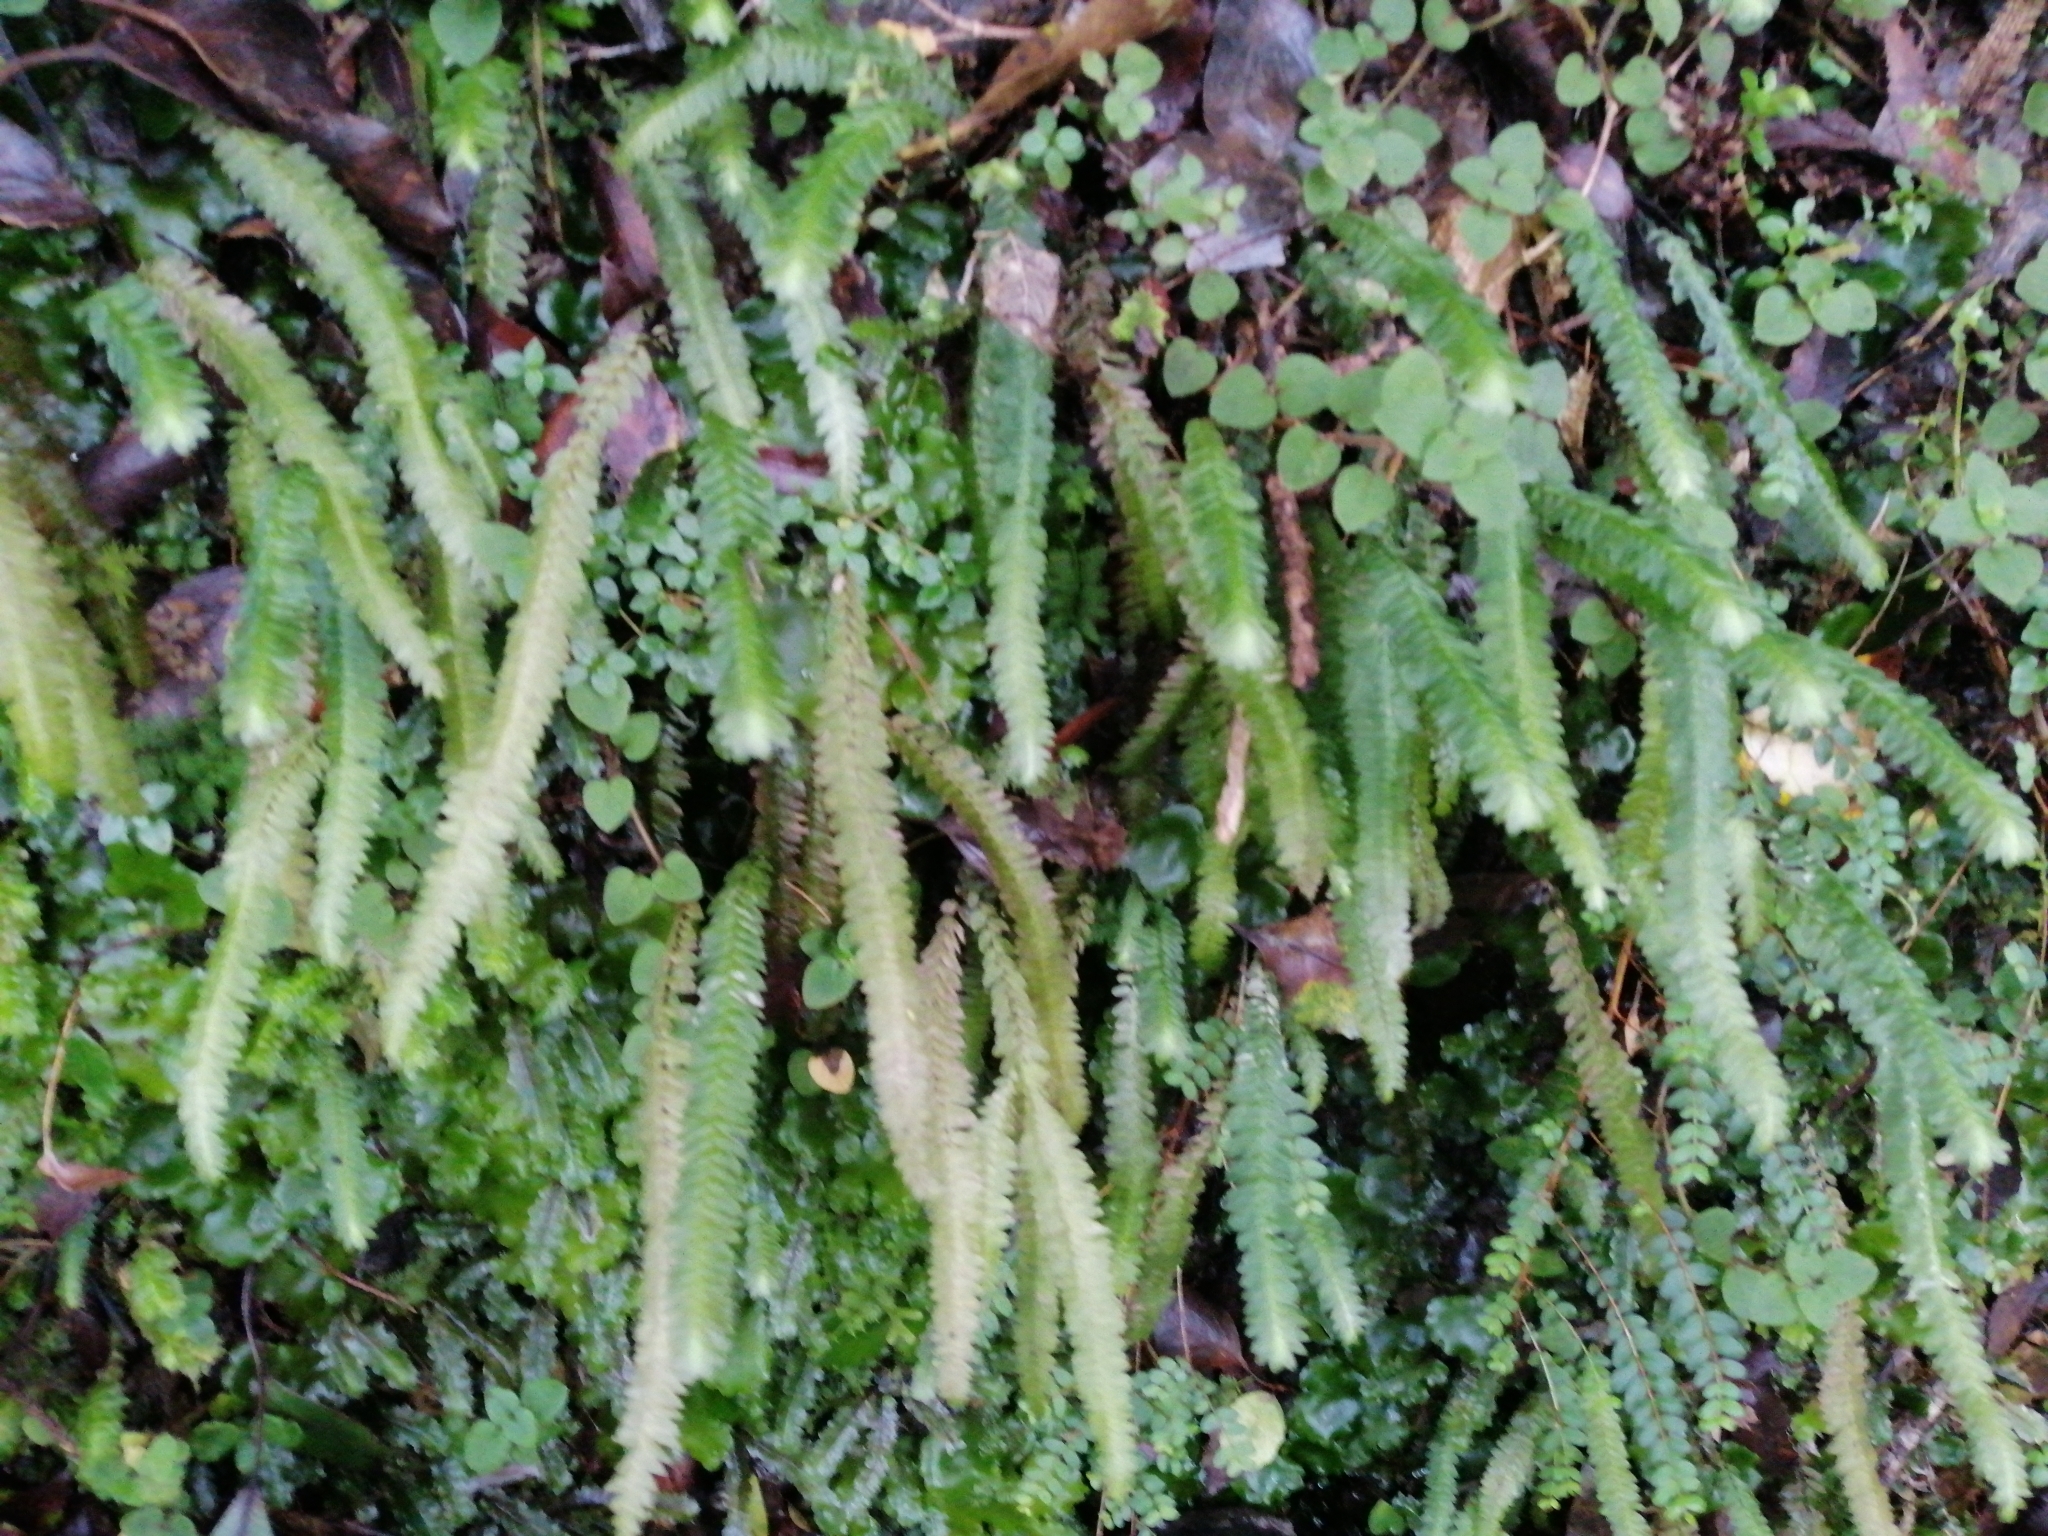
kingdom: Plantae
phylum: Bryophyta
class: Bryopsida
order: Hypopterygiales
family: Hypopterygiaceae
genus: Cyathophorum
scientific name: Cyathophorum bulbosum
